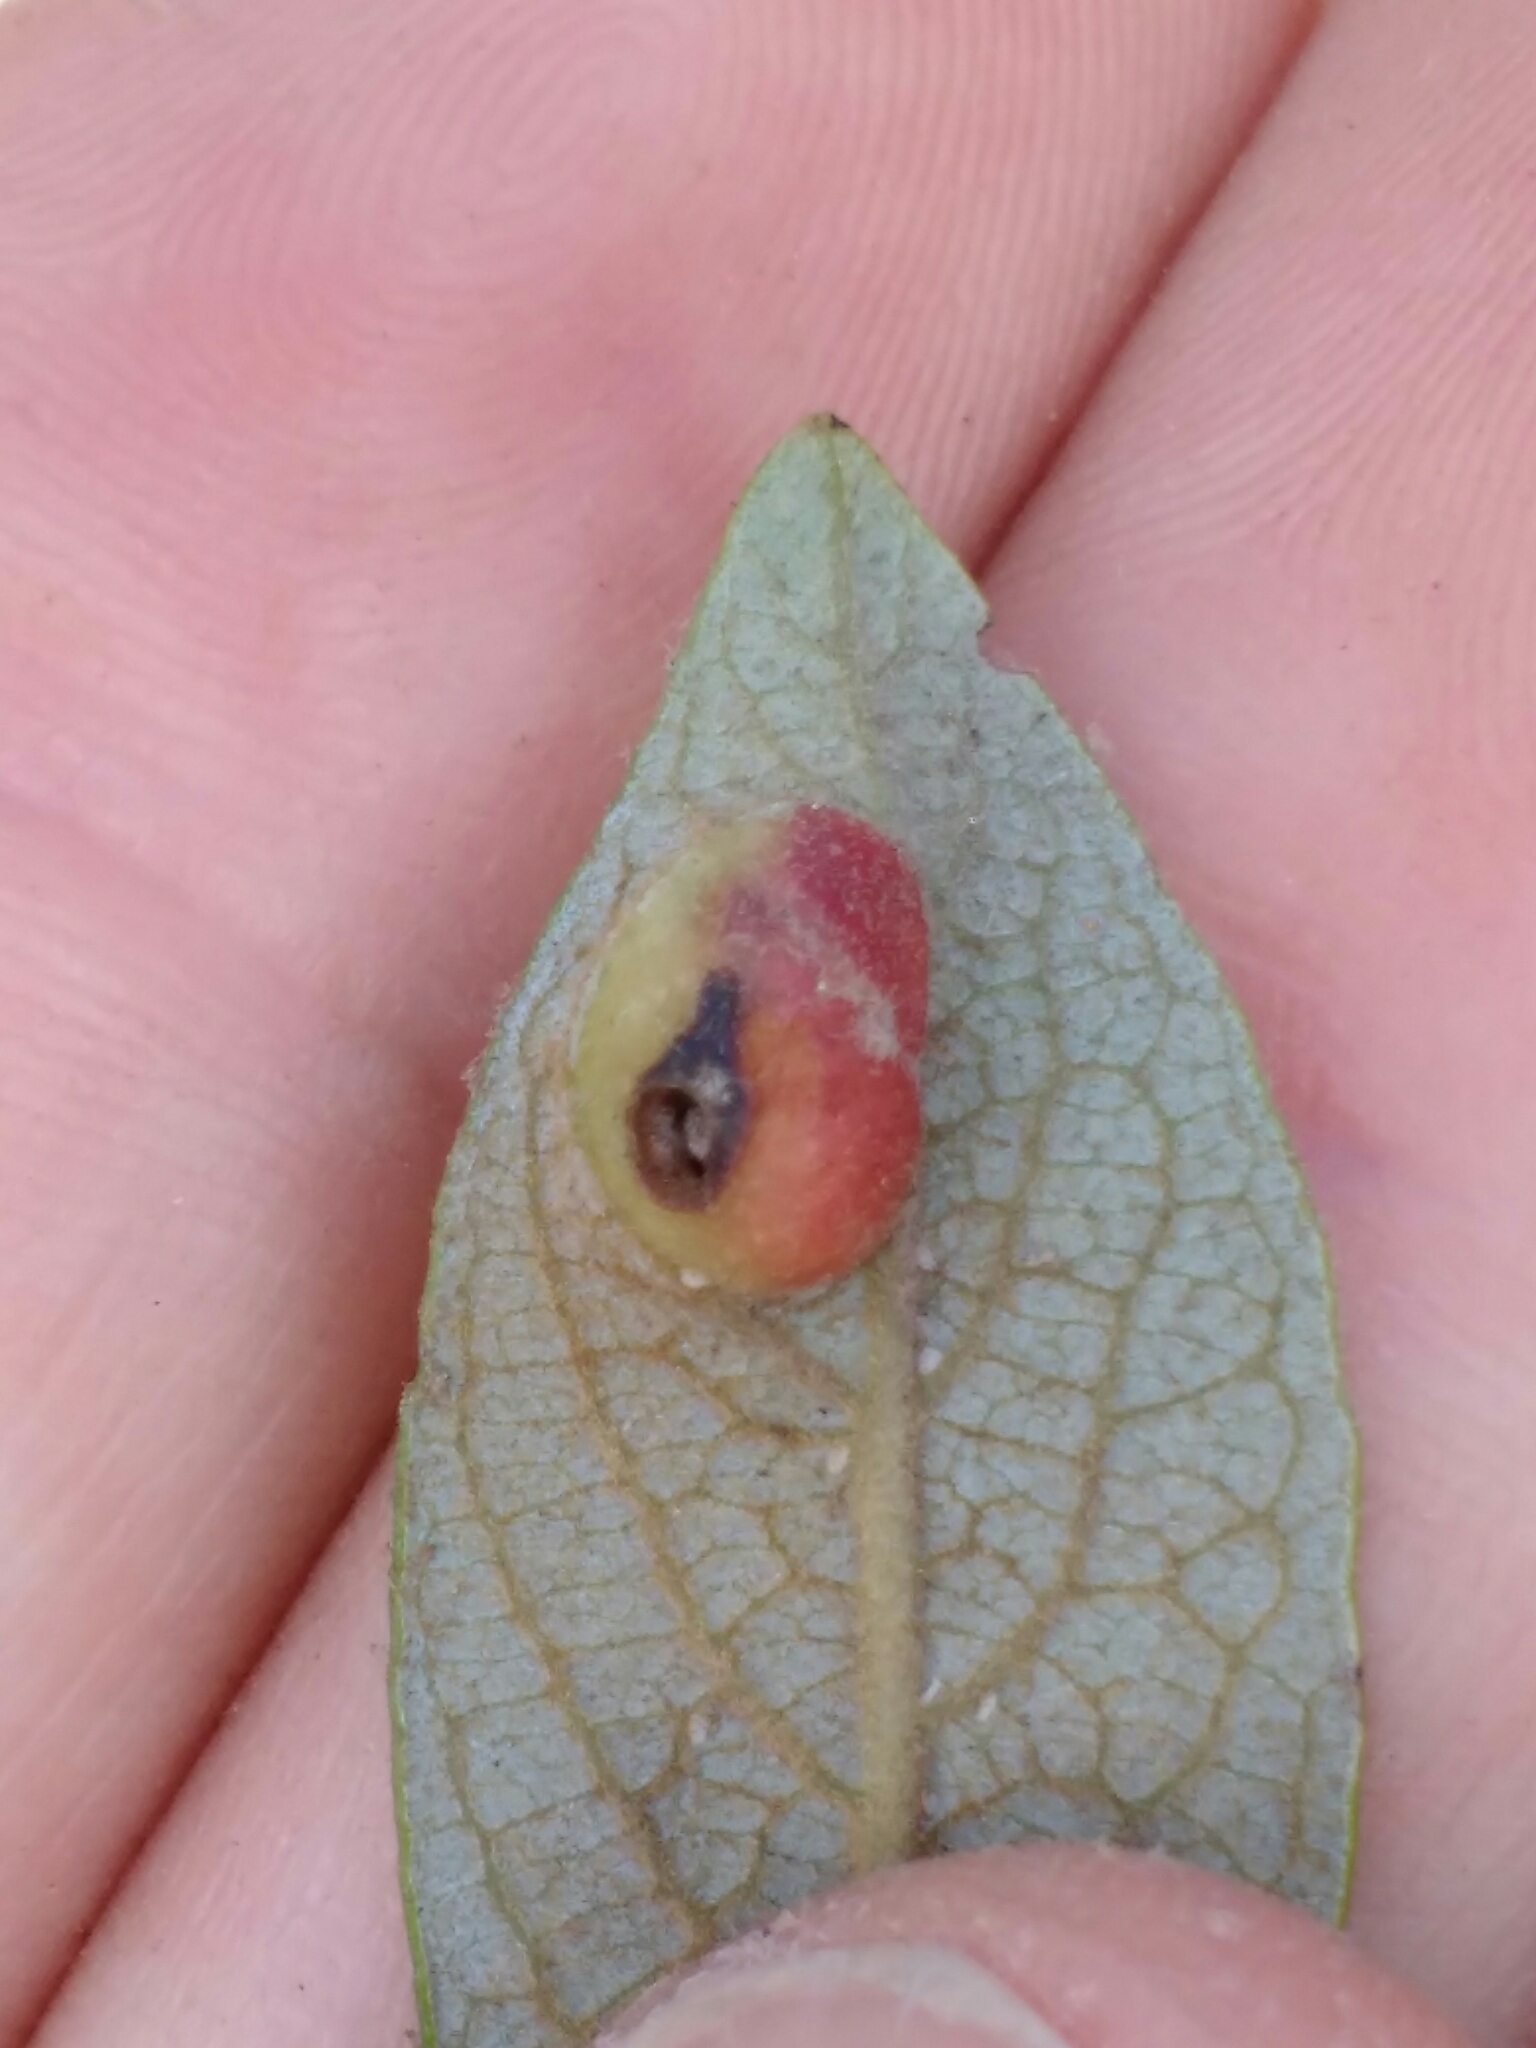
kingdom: Animalia
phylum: Arthropoda
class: Insecta
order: Hymenoptera
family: Tenthredinidae
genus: Euura
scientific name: Euura
